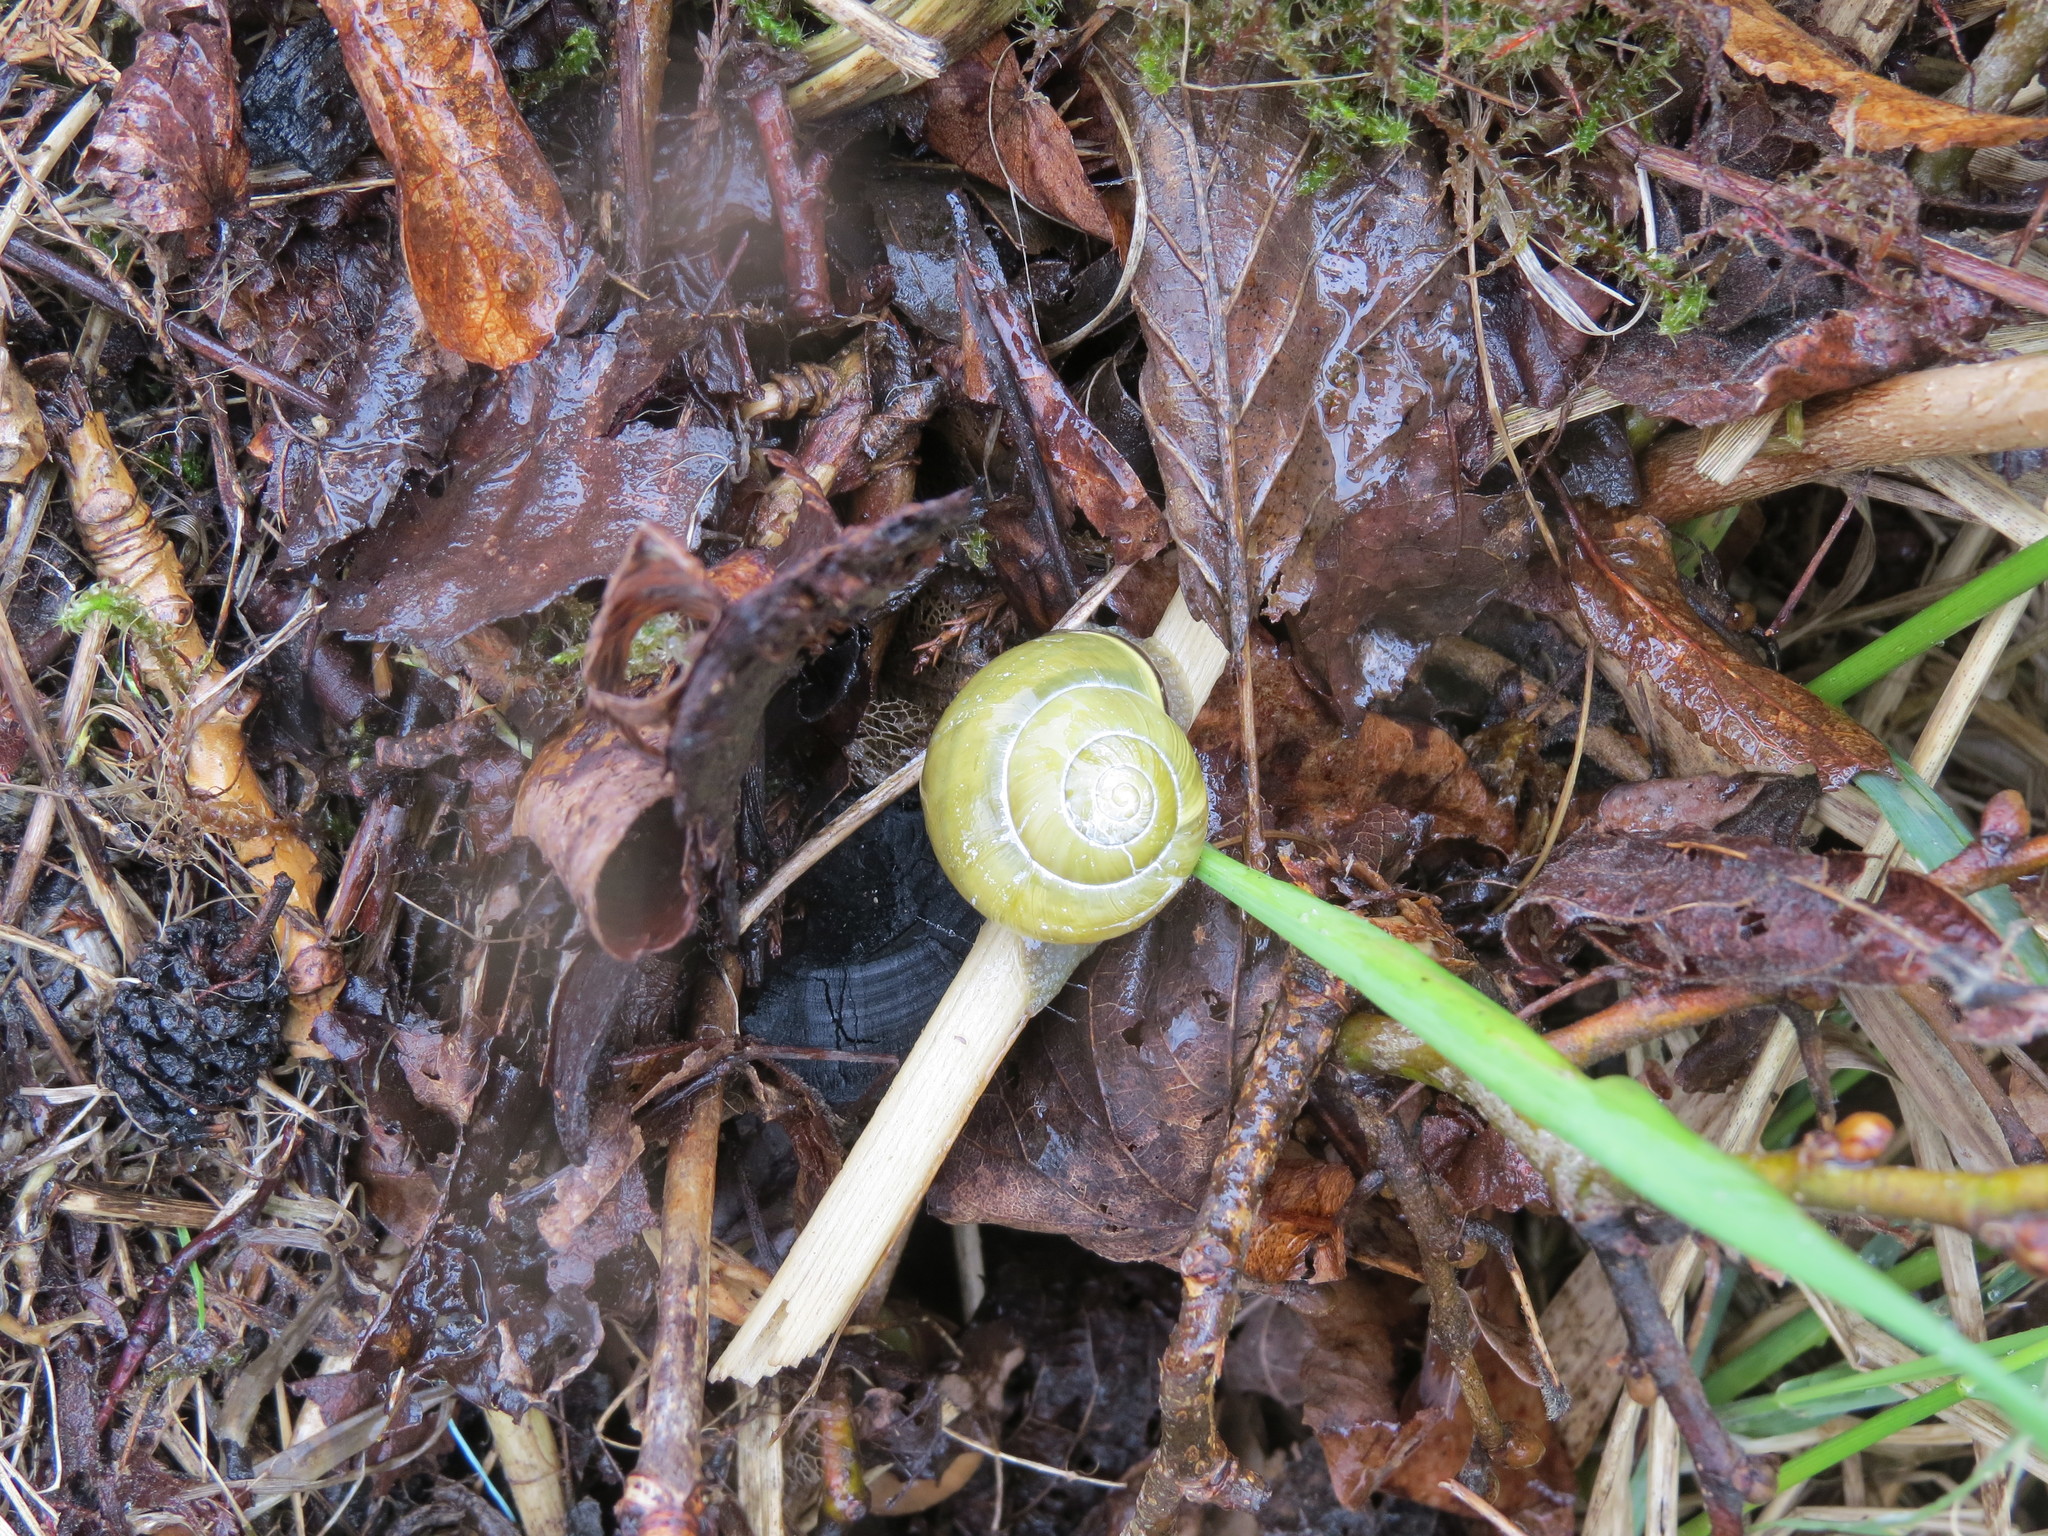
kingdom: Animalia
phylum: Mollusca
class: Gastropoda
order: Stylommatophora
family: Helicidae
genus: Cepaea
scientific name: Cepaea nemoralis
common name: Grovesnail
